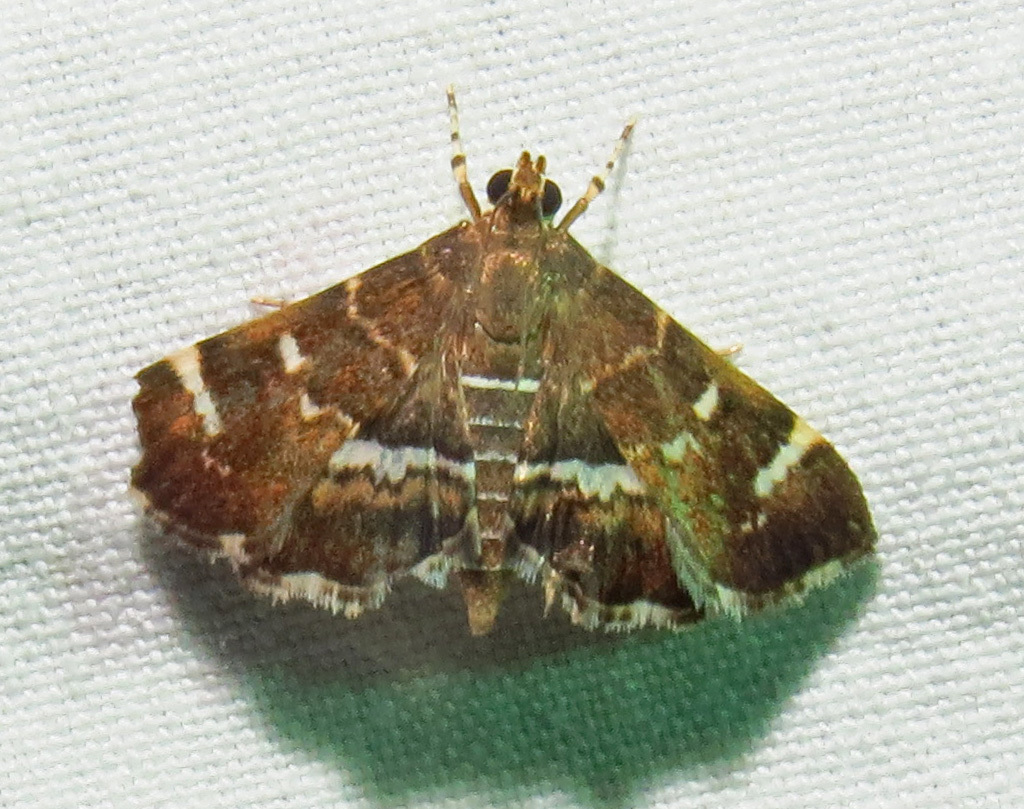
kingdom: Animalia
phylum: Arthropoda
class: Insecta
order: Lepidoptera
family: Crambidae
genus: Hymenia
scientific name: Hymenia perspectalis
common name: Spotted beet webworm
